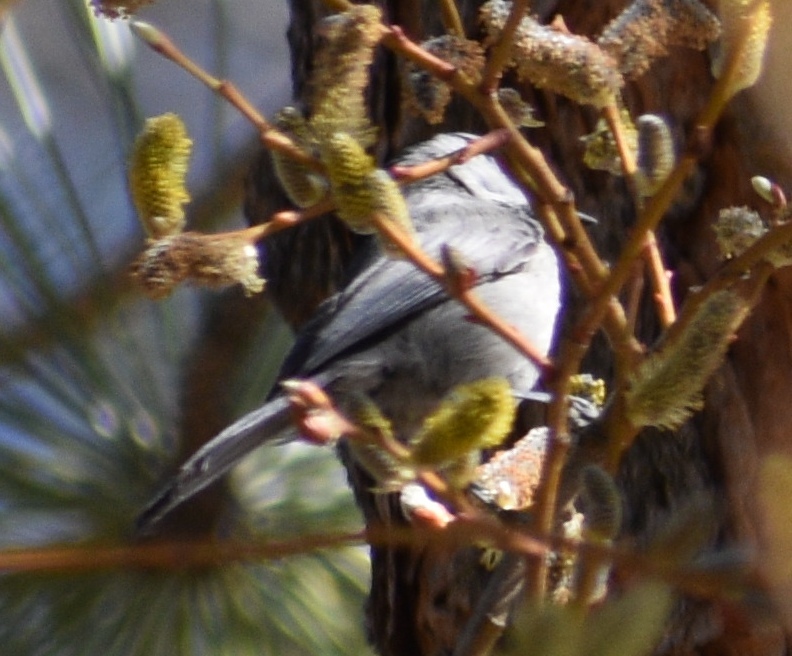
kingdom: Animalia
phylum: Chordata
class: Aves
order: Passeriformes
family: Paridae
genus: Poecile
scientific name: Poecile gambeli
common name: Mountain chickadee
